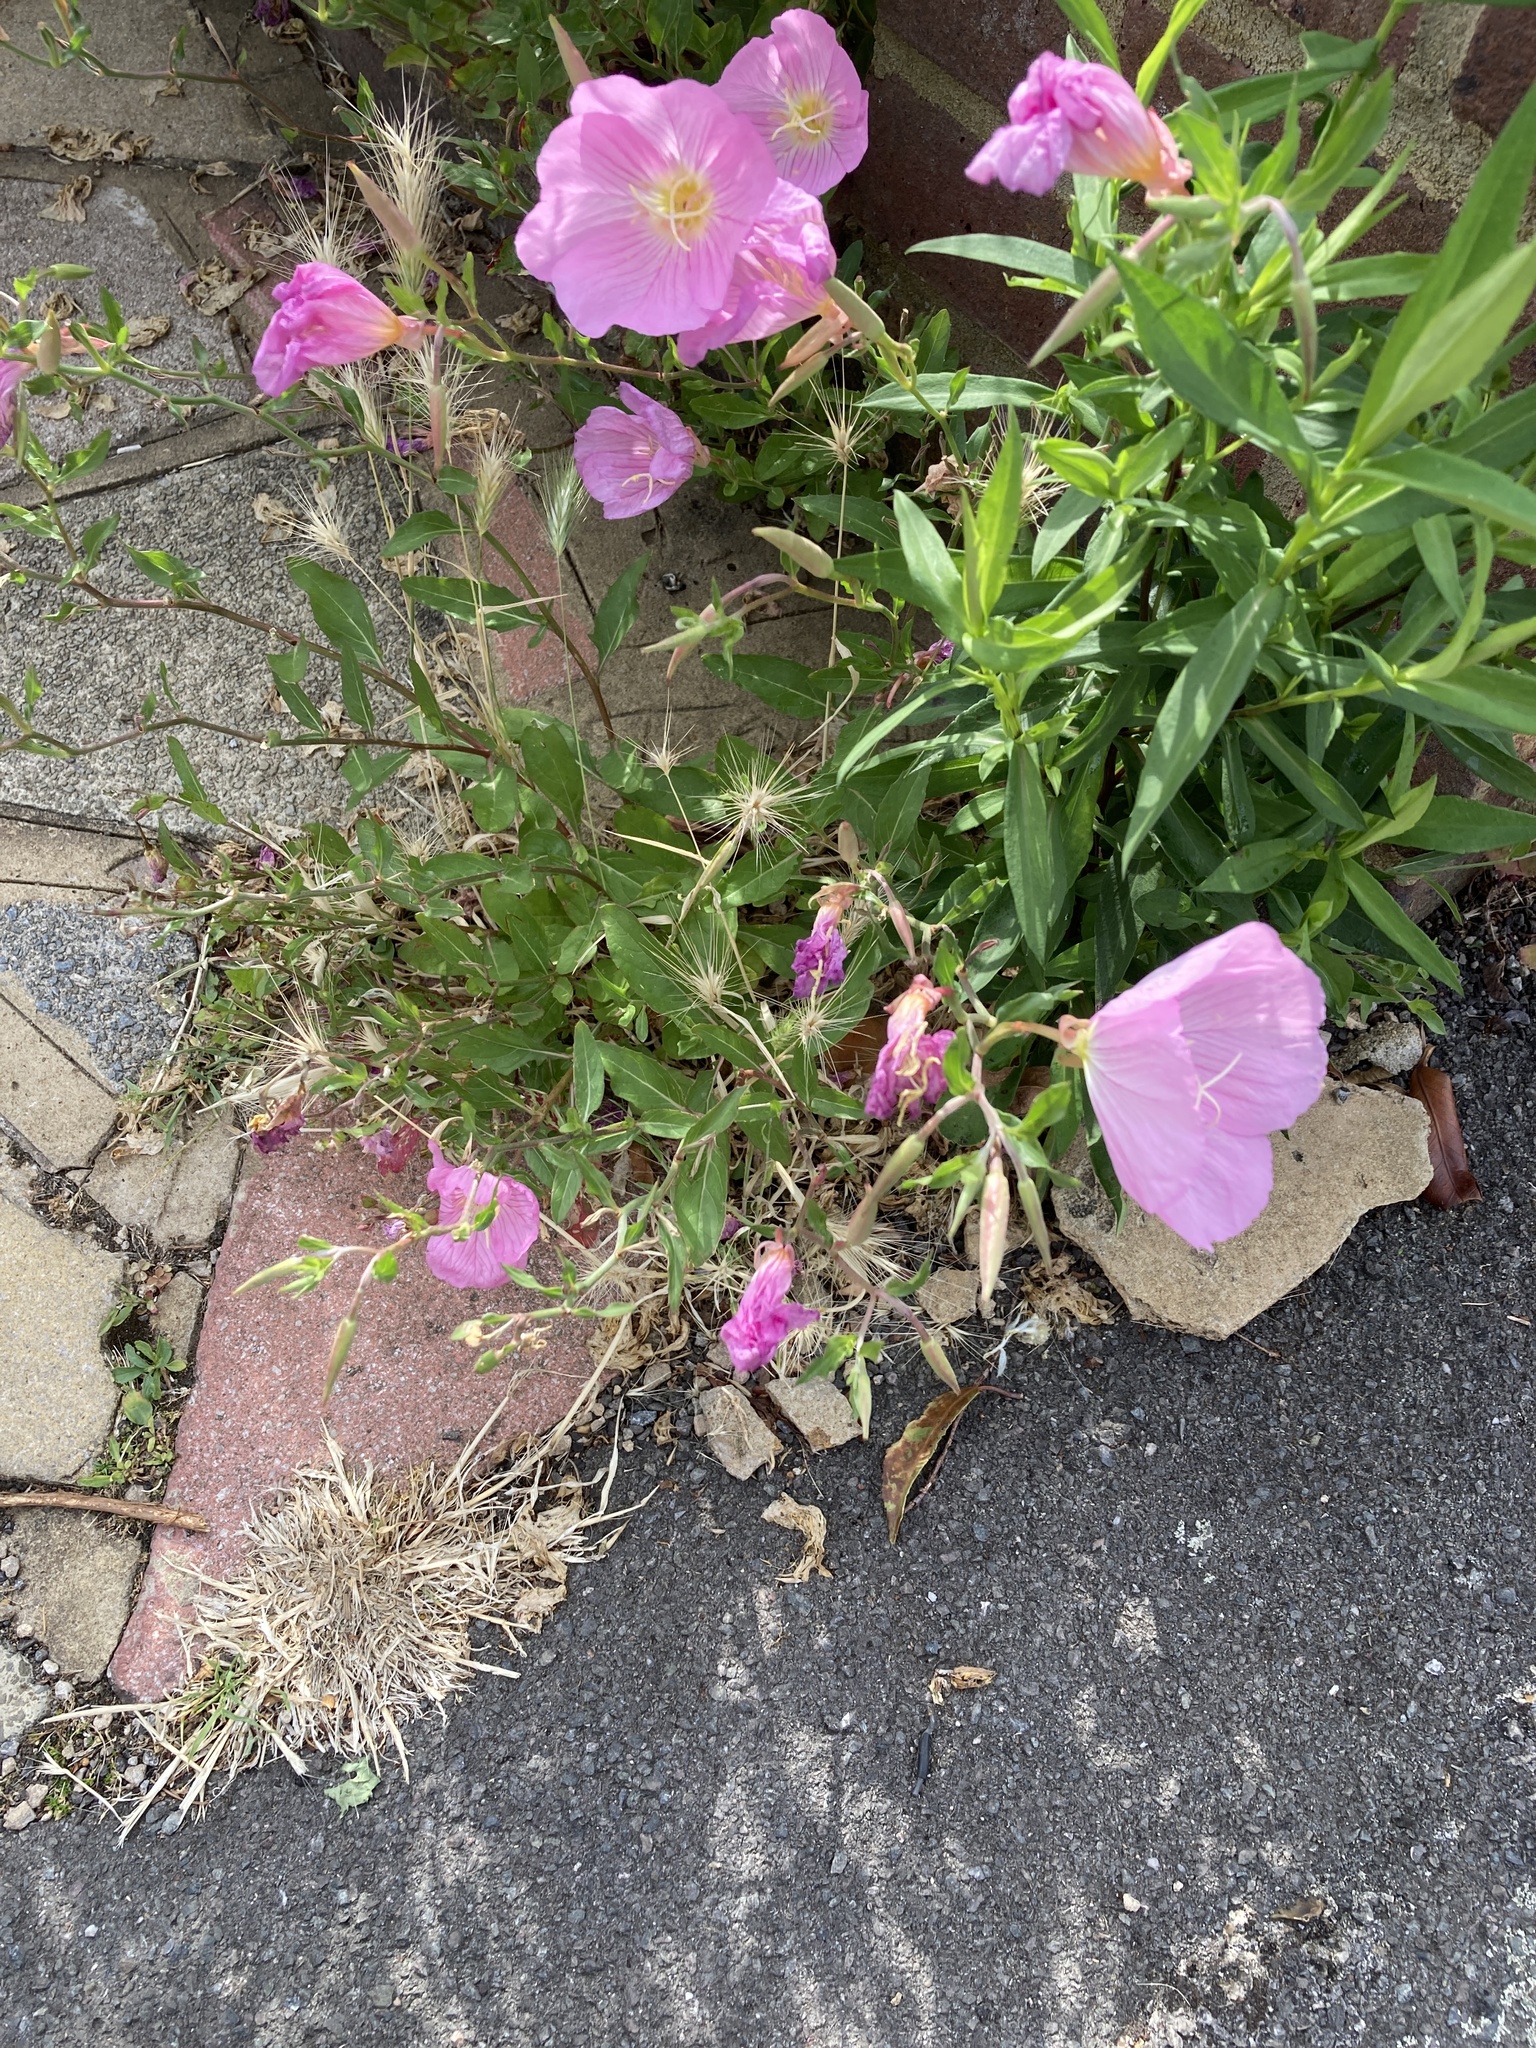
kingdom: Plantae
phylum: Tracheophyta
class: Magnoliopsida
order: Myrtales
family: Onagraceae
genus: Oenothera
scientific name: Oenothera speciosa
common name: White evening-primrose
